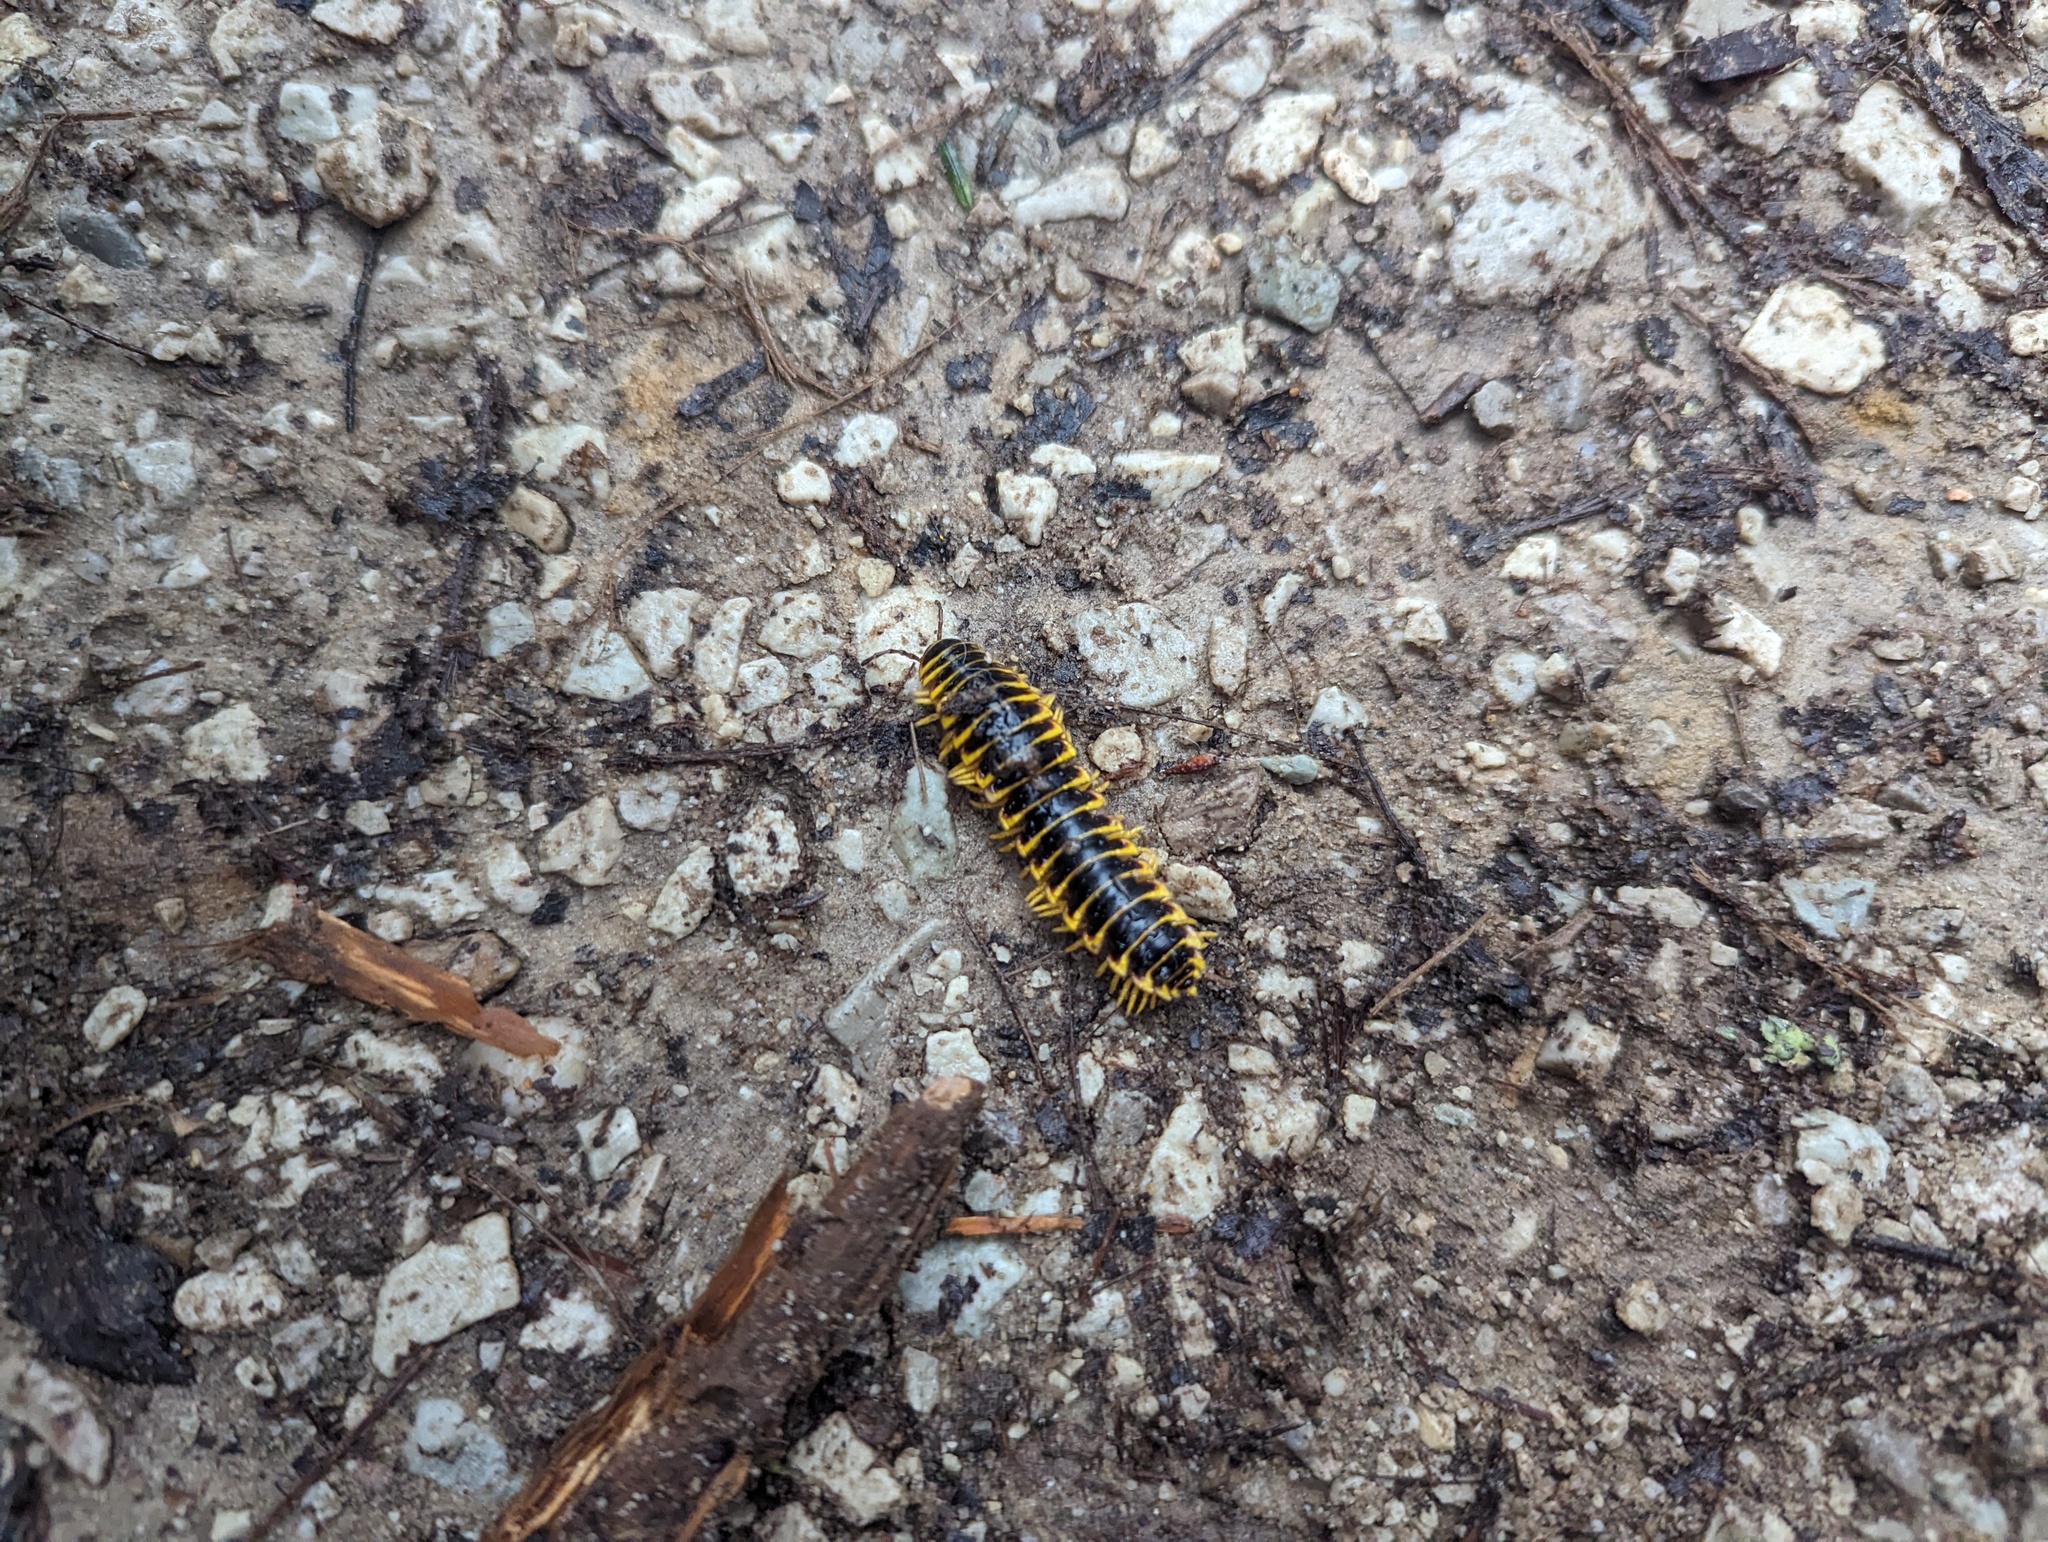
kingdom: Animalia
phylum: Arthropoda
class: Diplopoda
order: Polydesmida
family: Xystodesmidae
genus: Apheloria
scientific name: Apheloria virginiensis
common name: Black-and-gold flat millipede
